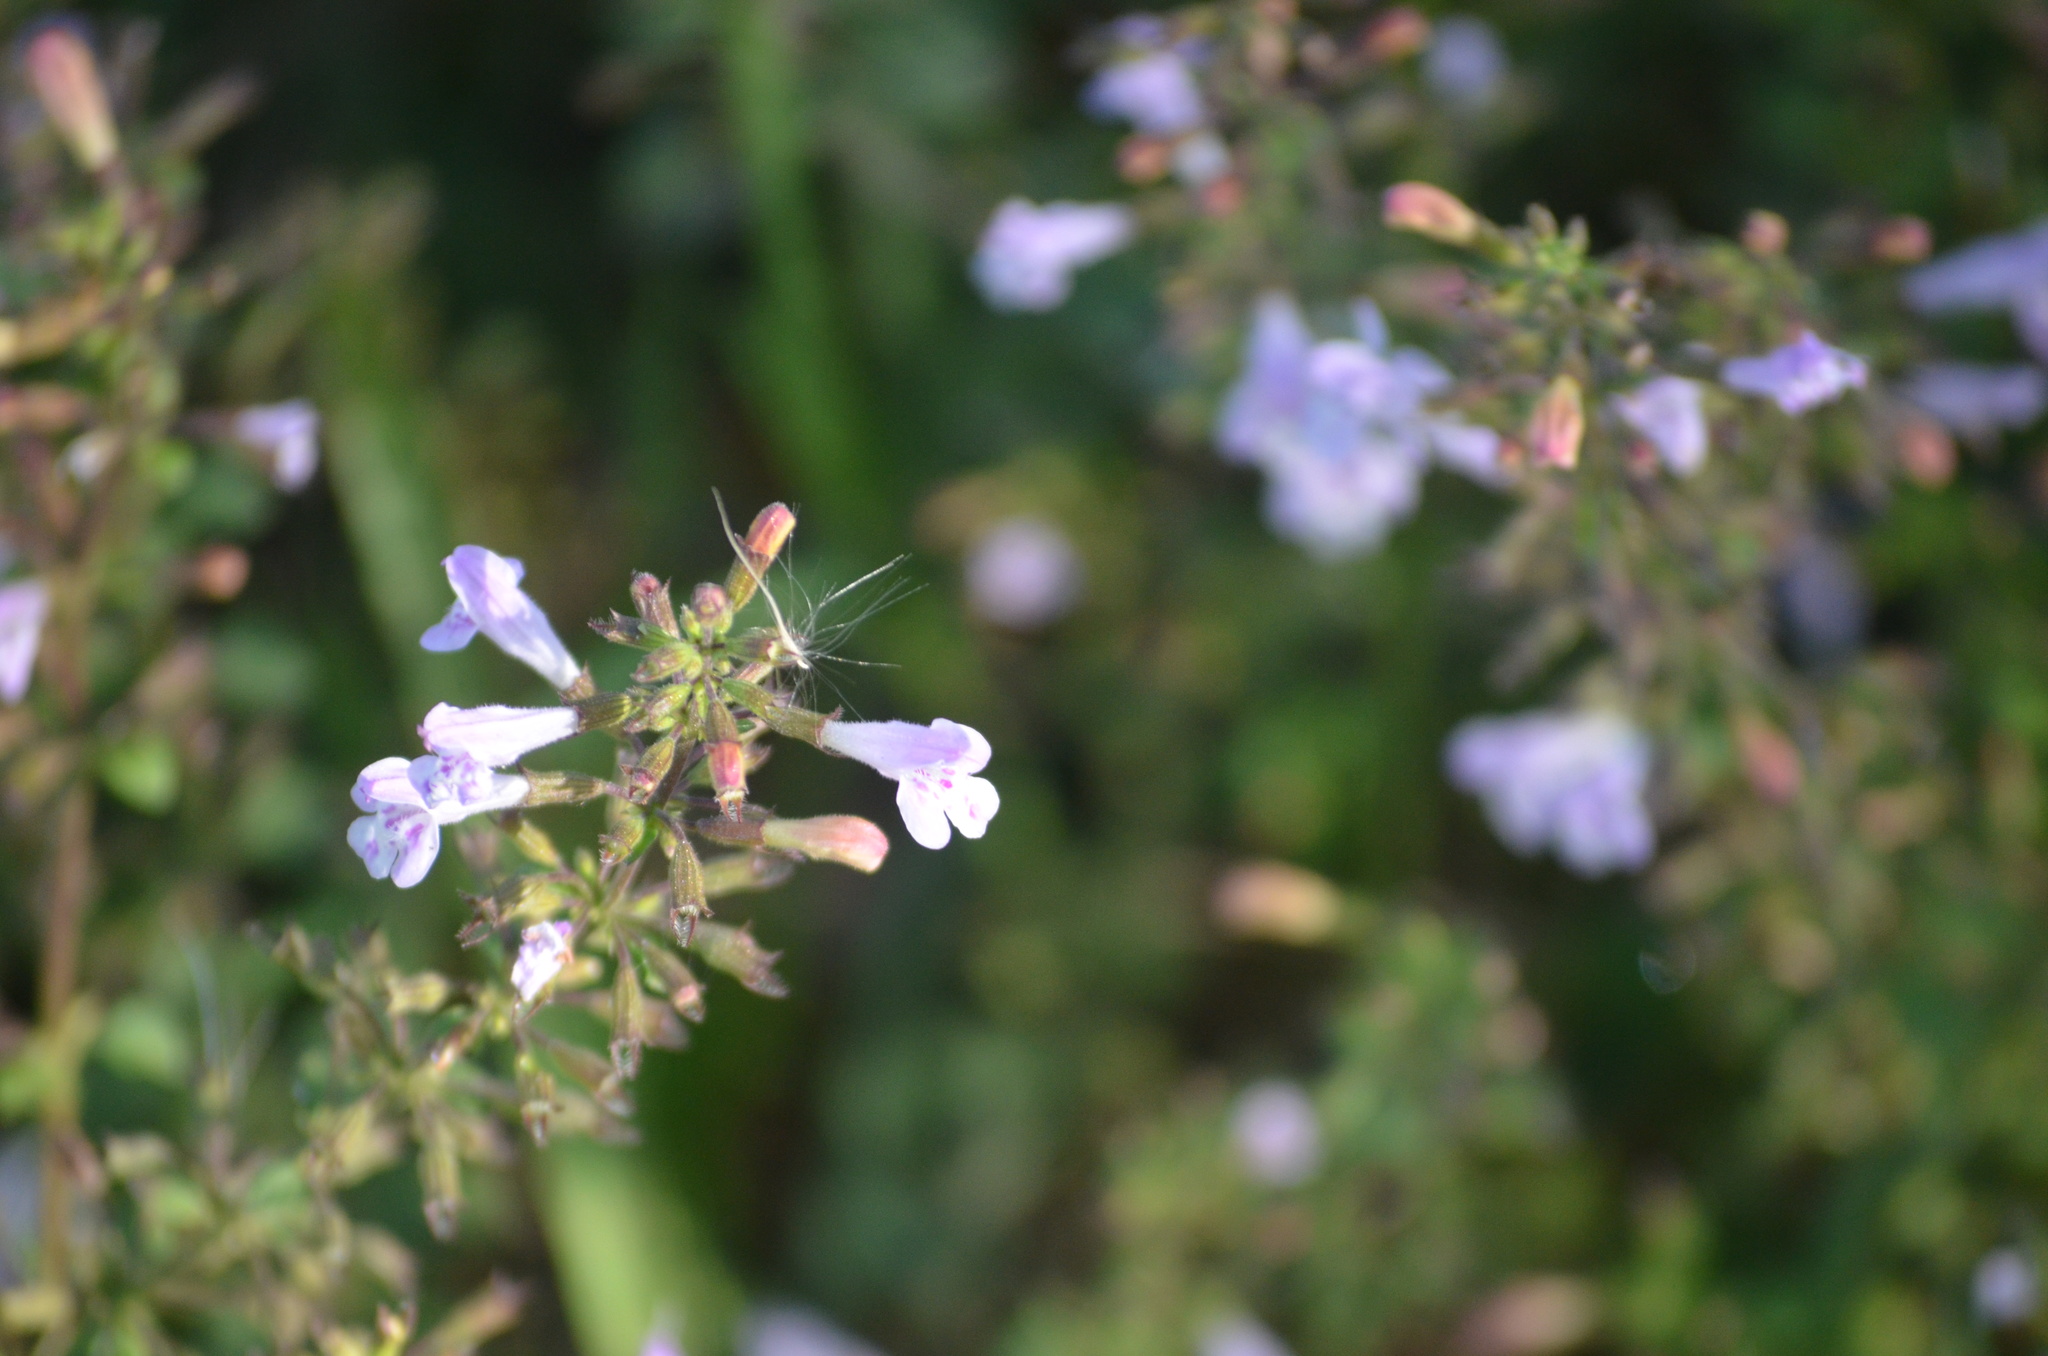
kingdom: Plantae
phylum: Tracheophyta
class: Magnoliopsida
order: Lamiales
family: Lamiaceae
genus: Clinopodium
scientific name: Clinopodium nepeta
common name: Lesser calamint
